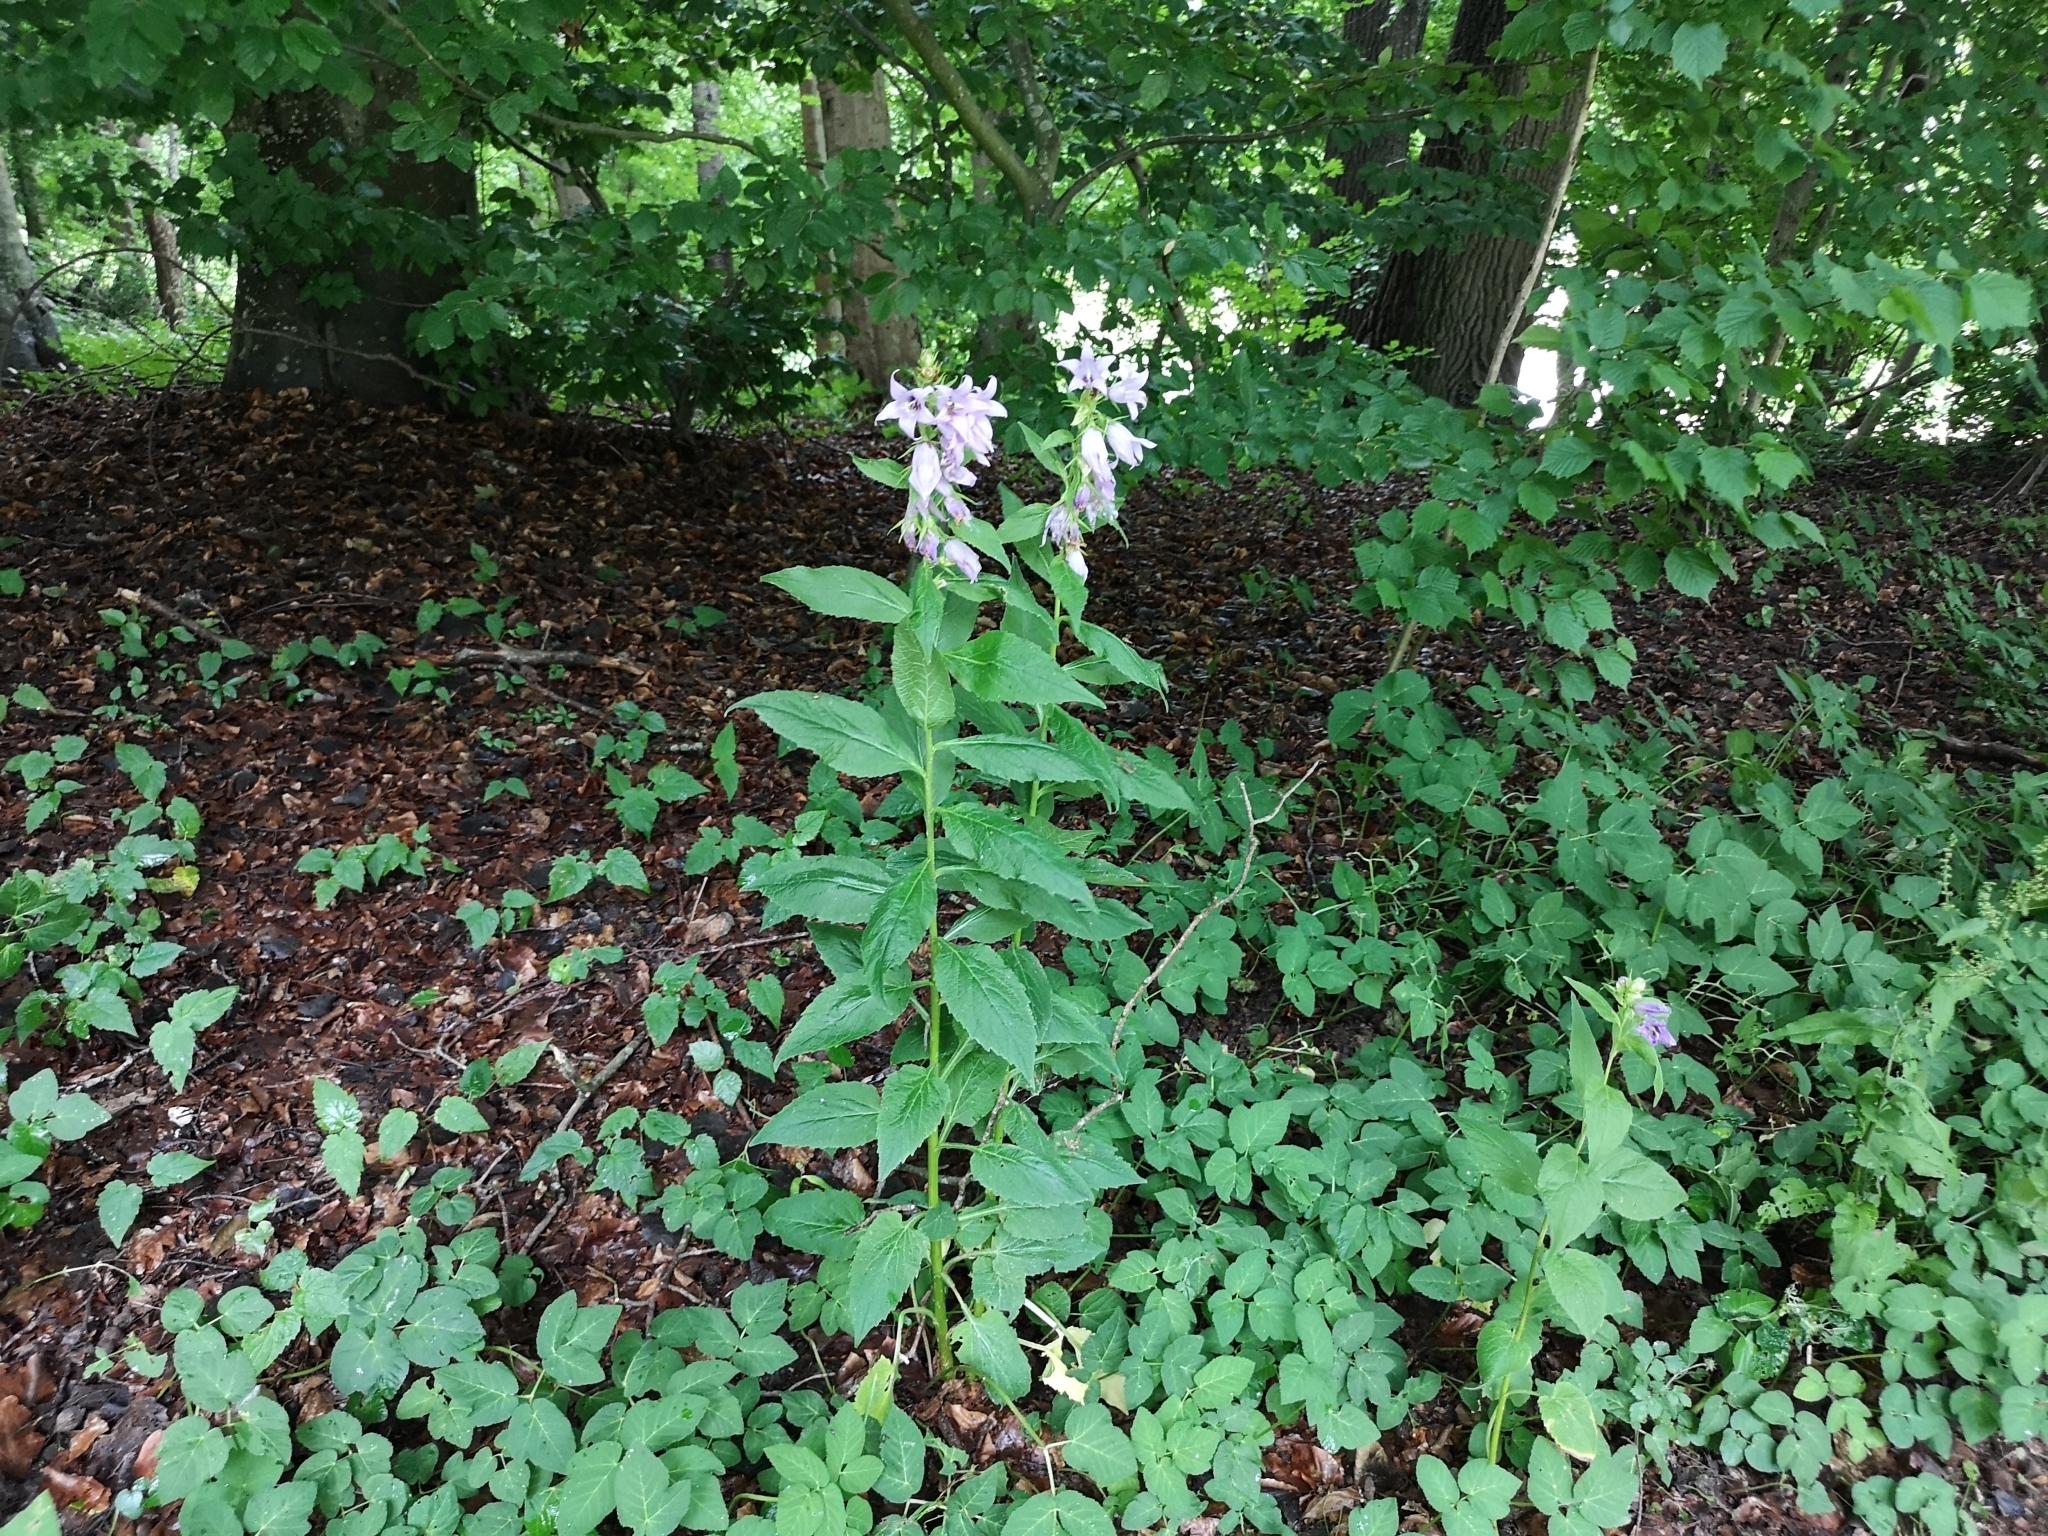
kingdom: Plantae
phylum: Tracheophyta
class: Magnoliopsida
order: Asterales
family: Campanulaceae
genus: Campanula
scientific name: Campanula latifolia
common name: Giant bellflower
